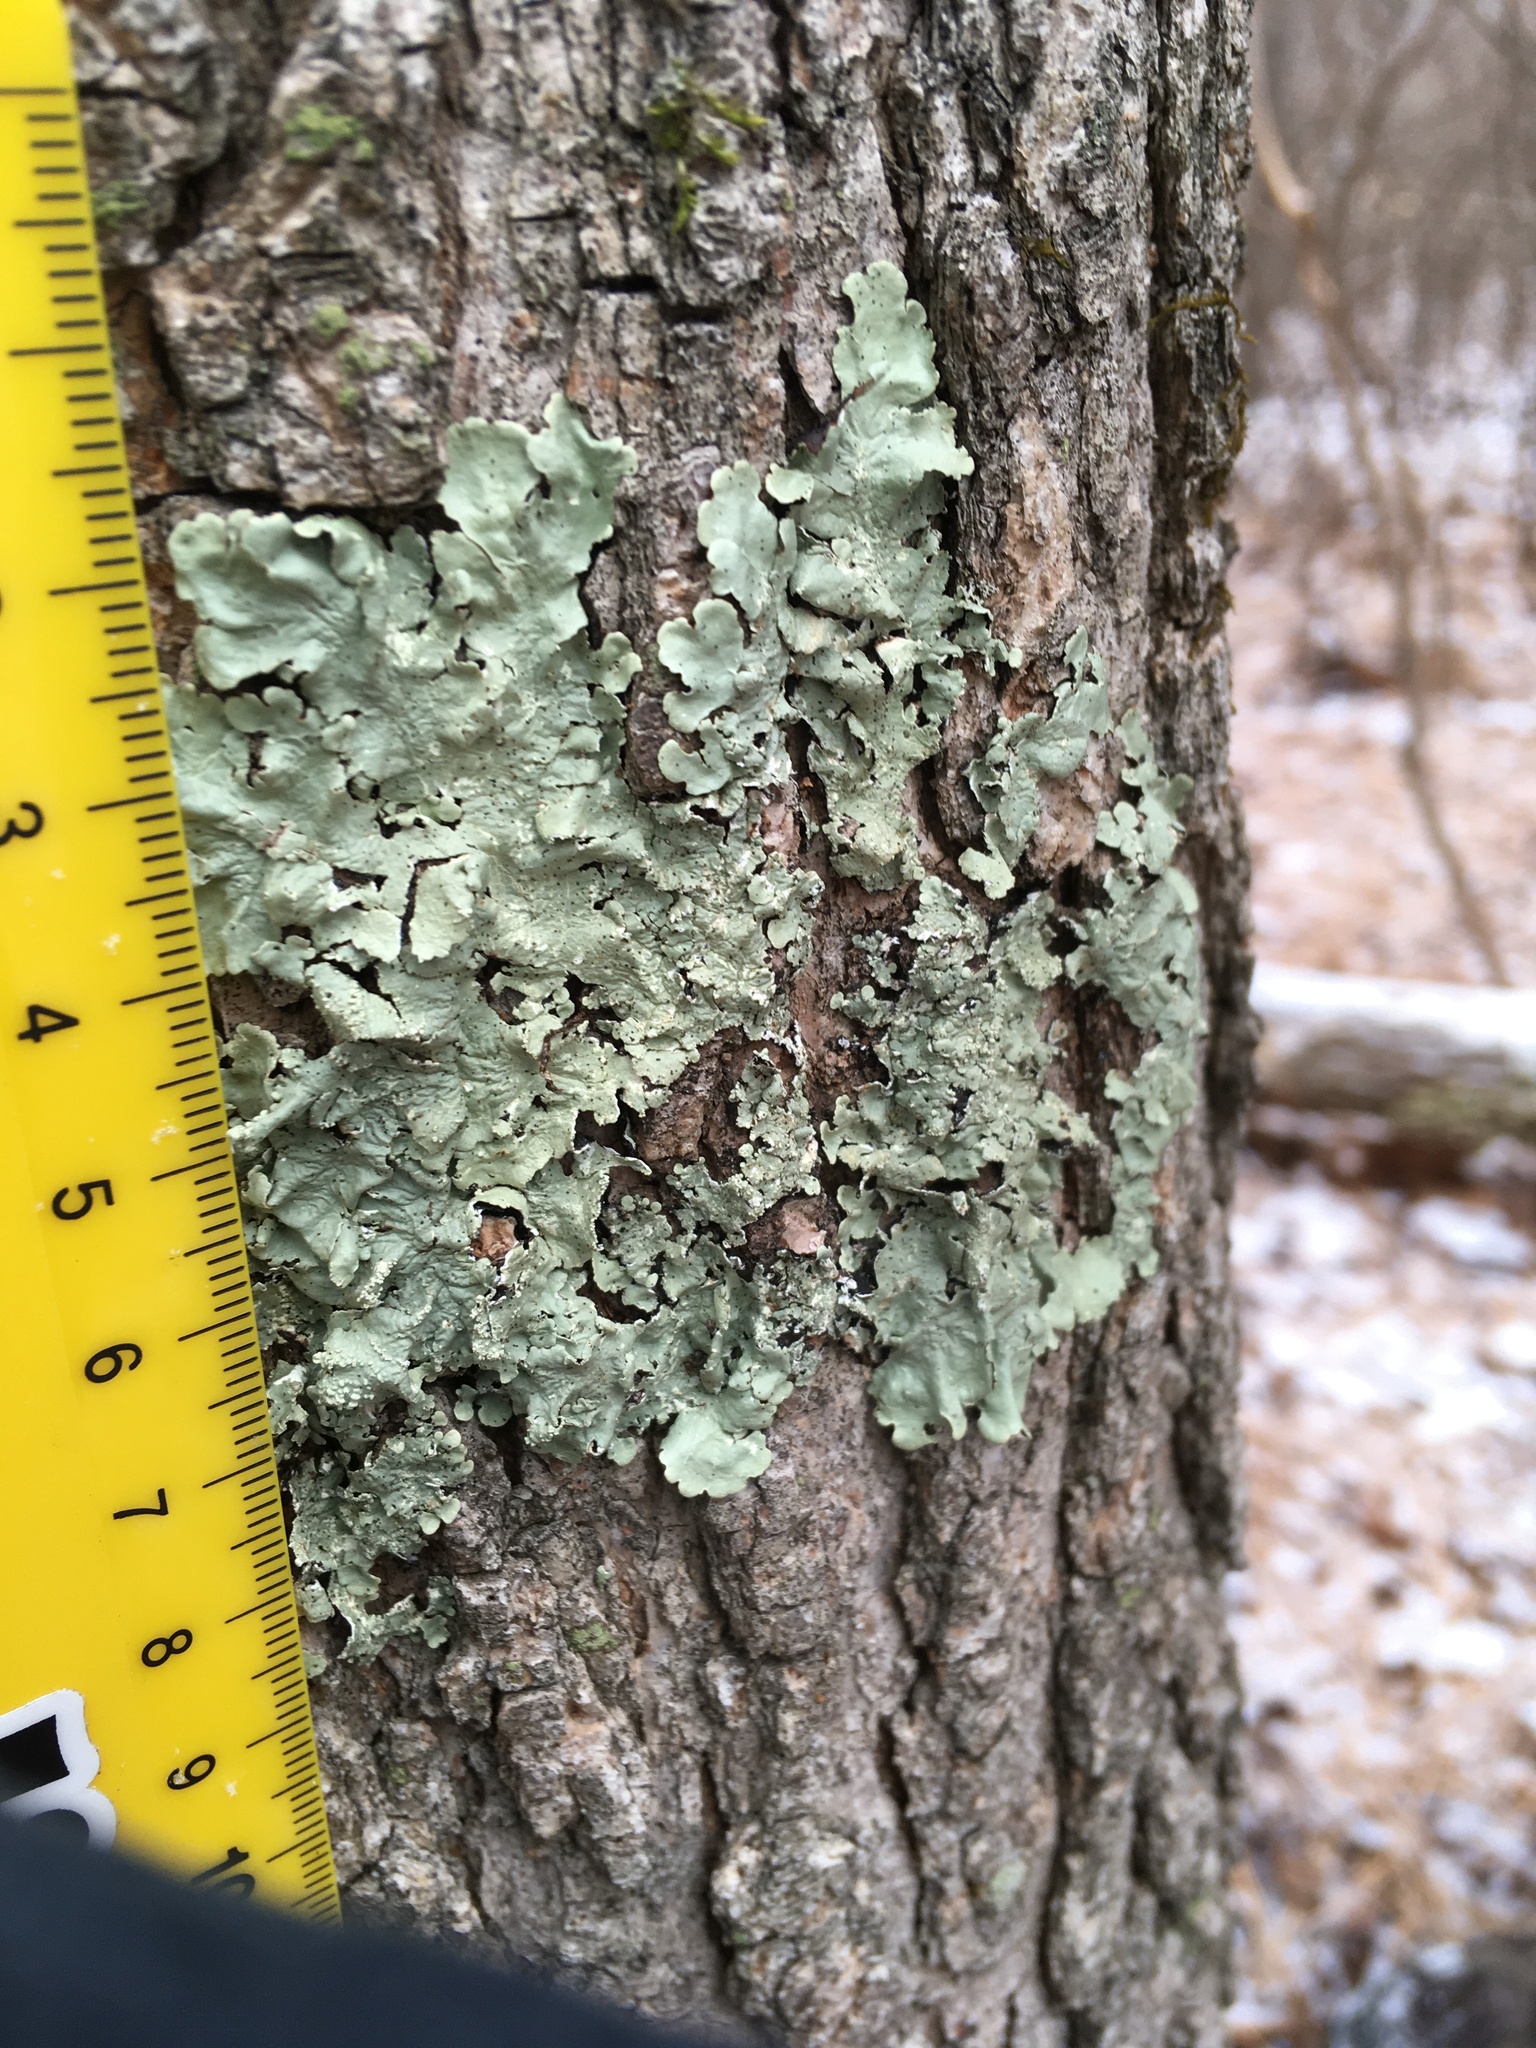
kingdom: Fungi
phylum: Ascomycota
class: Lecanoromycetes
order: Lecanorales
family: Parmeliaceae
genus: Flavoparmelia
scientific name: Flavoparmelia caperata
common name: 40-mile per hour lichen
